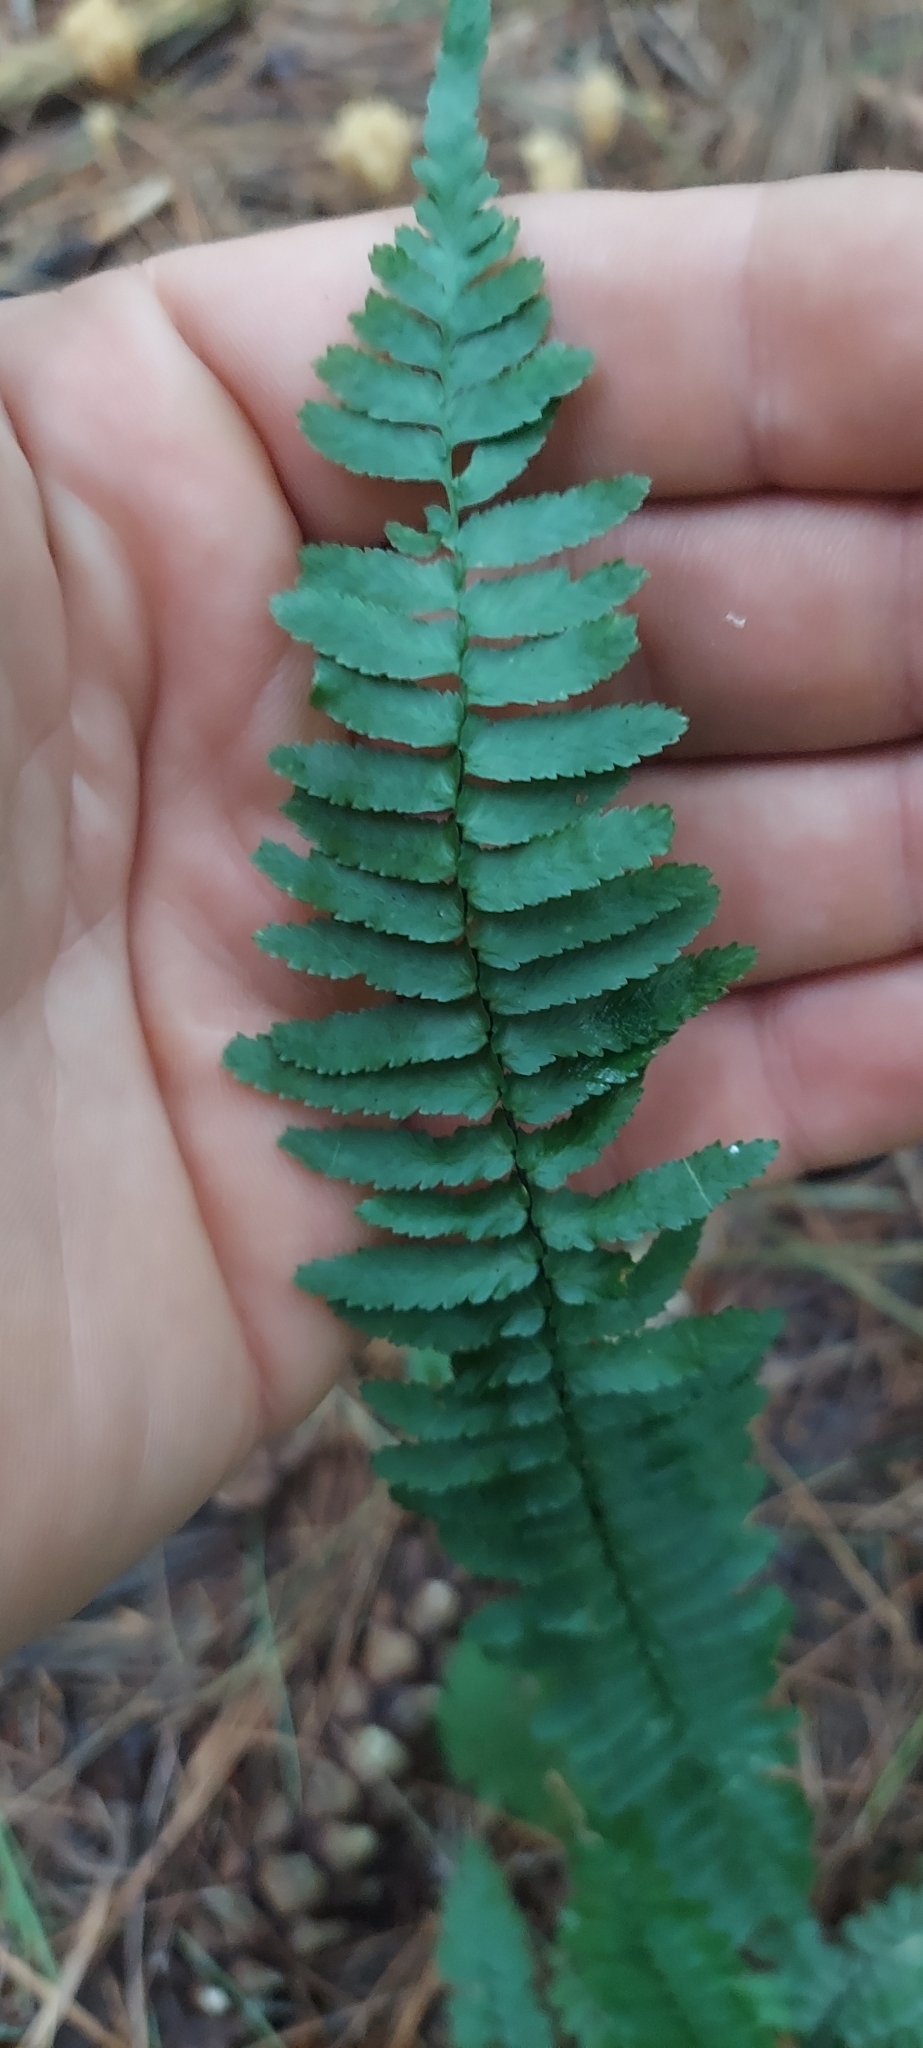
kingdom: Plantae
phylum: Tracheophyta
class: Polypodiopsida
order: Polypodiales
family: Aspleniaceae
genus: Asplenium
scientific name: Asplenium platyneuron
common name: Ebony spleenwort
